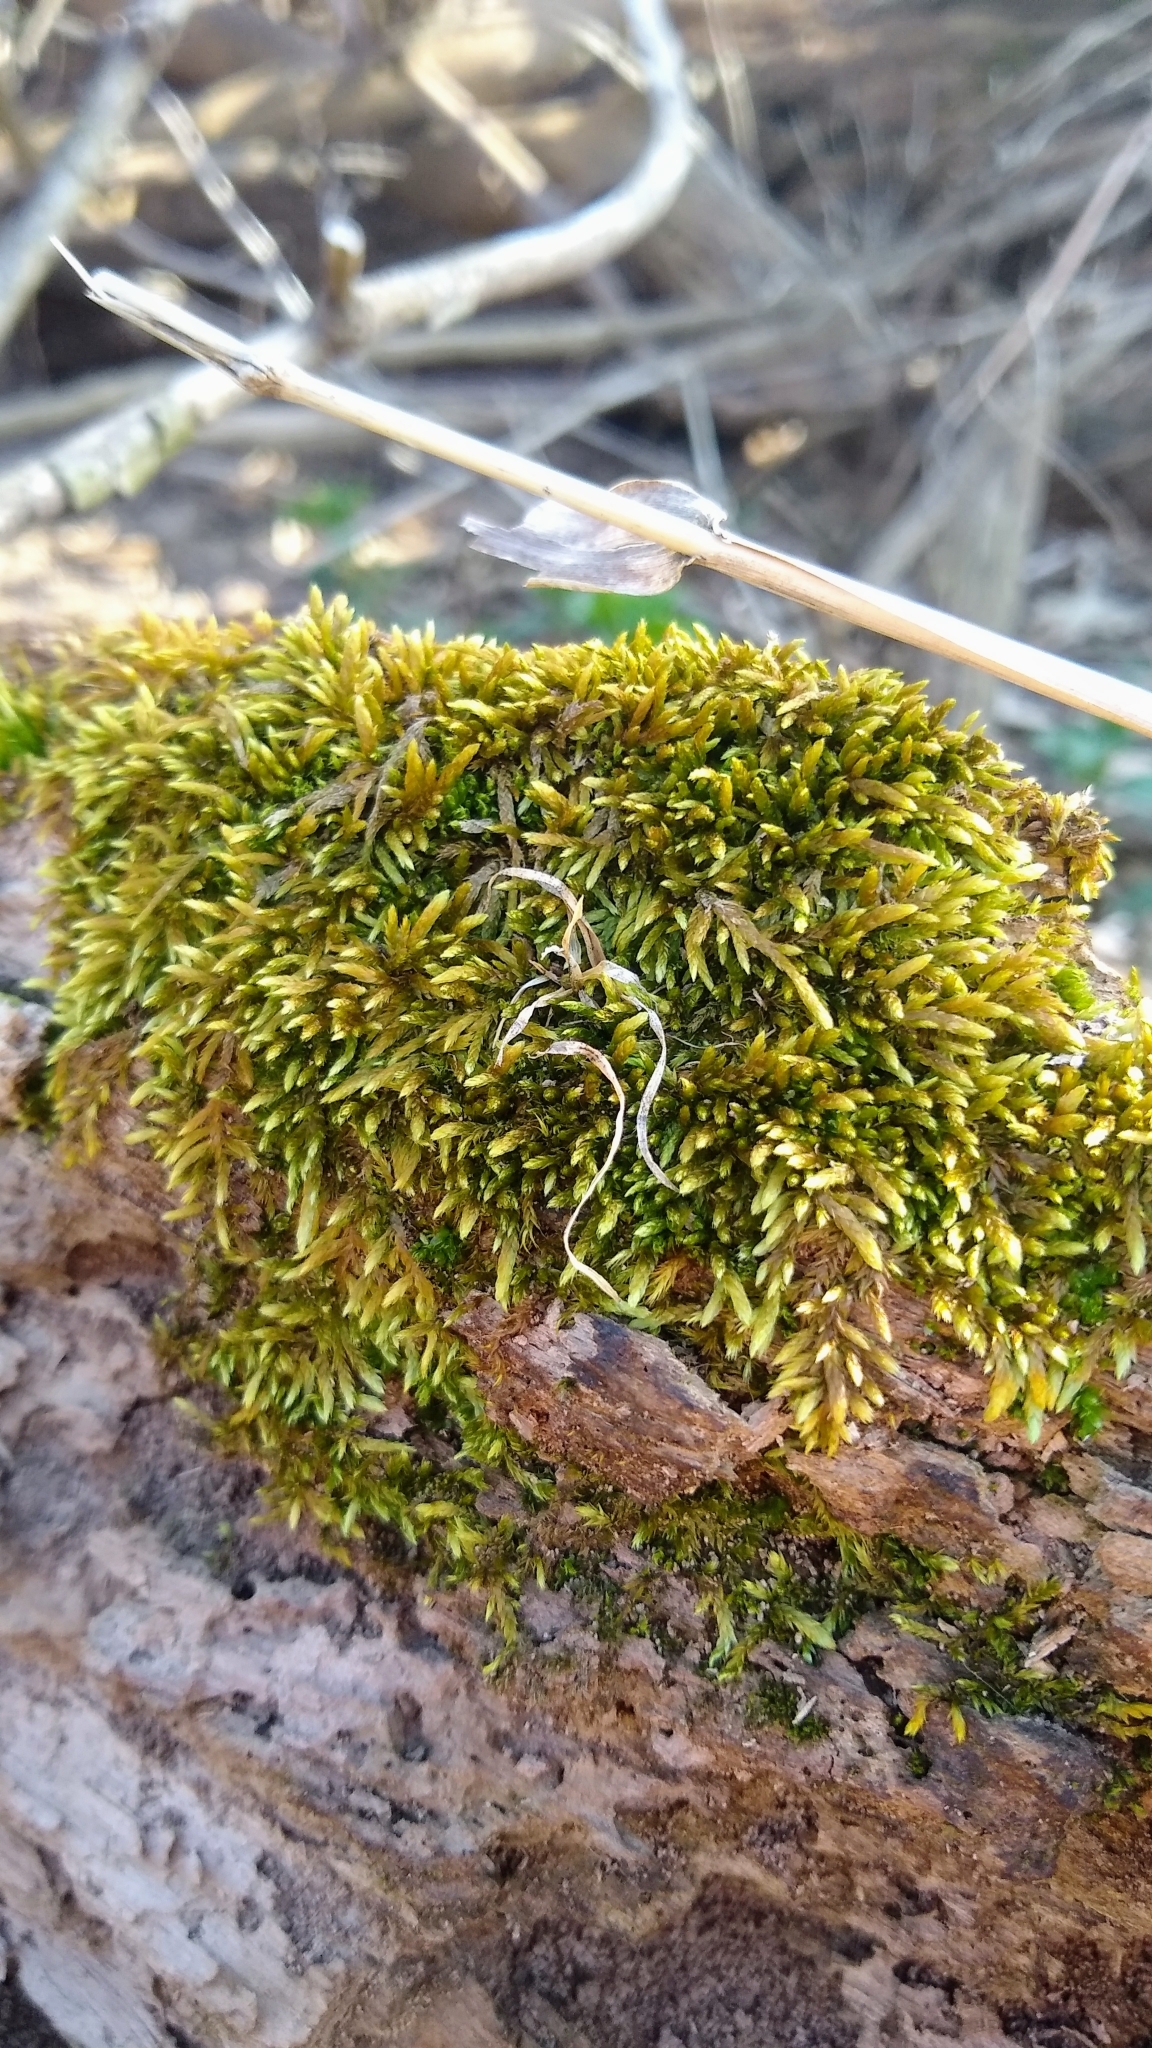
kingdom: Plantae
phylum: Bryophyta
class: Bryopsida
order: Hypnales
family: Entodontaceae
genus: Entodon
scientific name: Entodon seductrix
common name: Round-stemmed entodon moss
